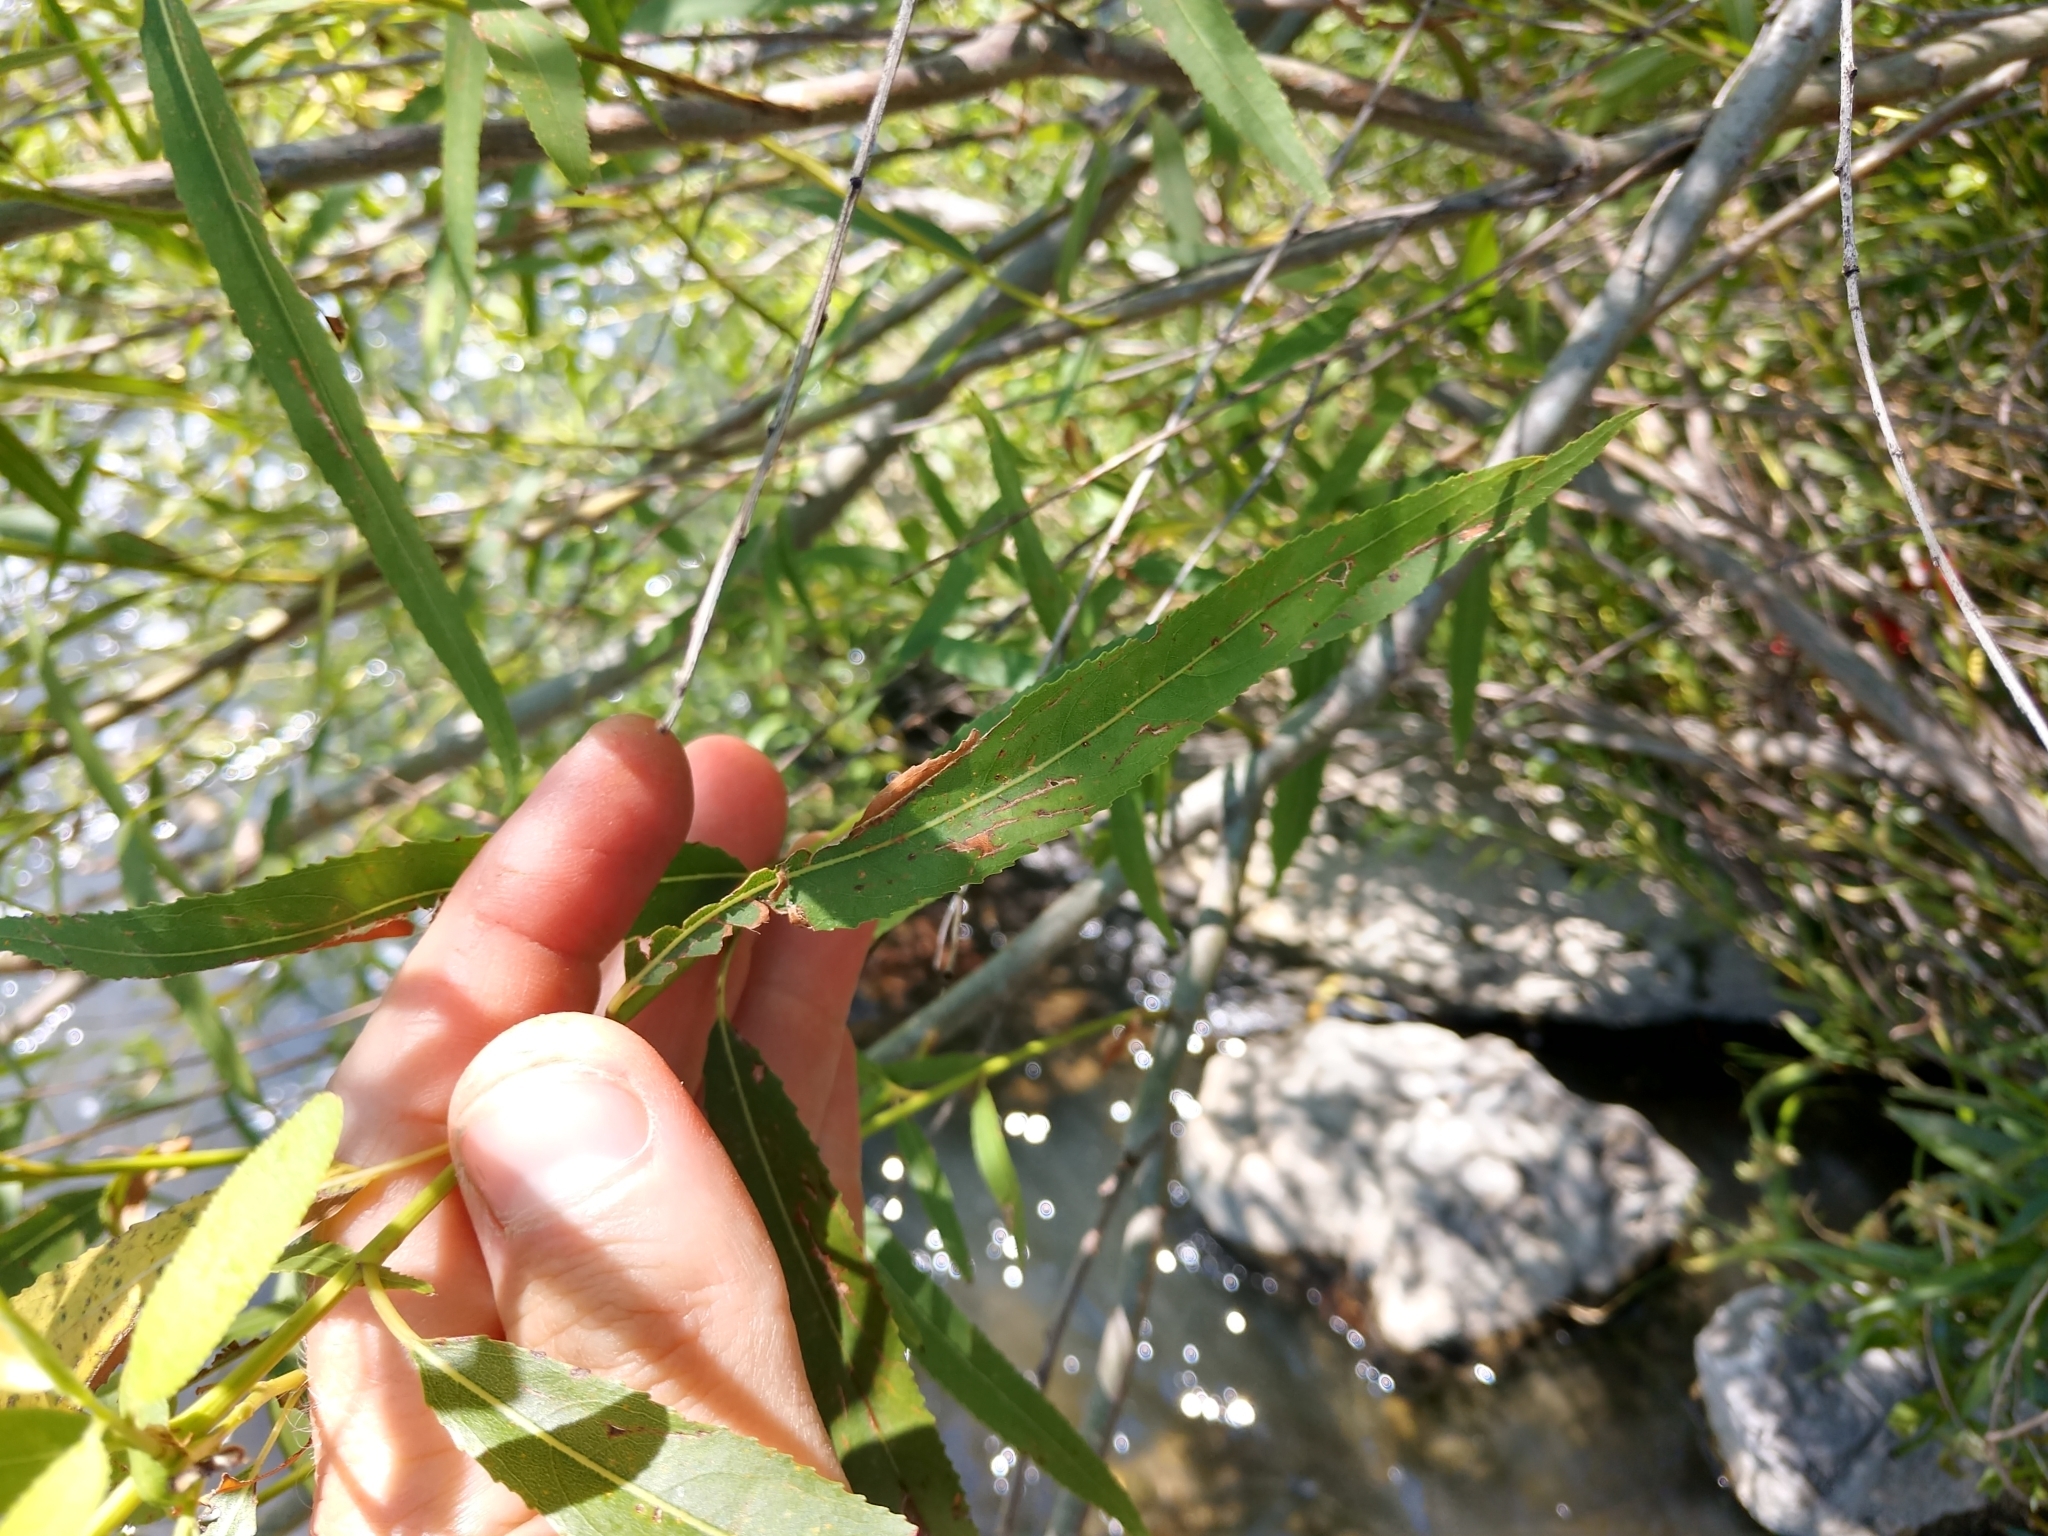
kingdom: Plantae
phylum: Tracheophyta
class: Magnoliopsida
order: Malpighiales
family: Salicaceae
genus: Salix
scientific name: Salix nigra
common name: Black willow
